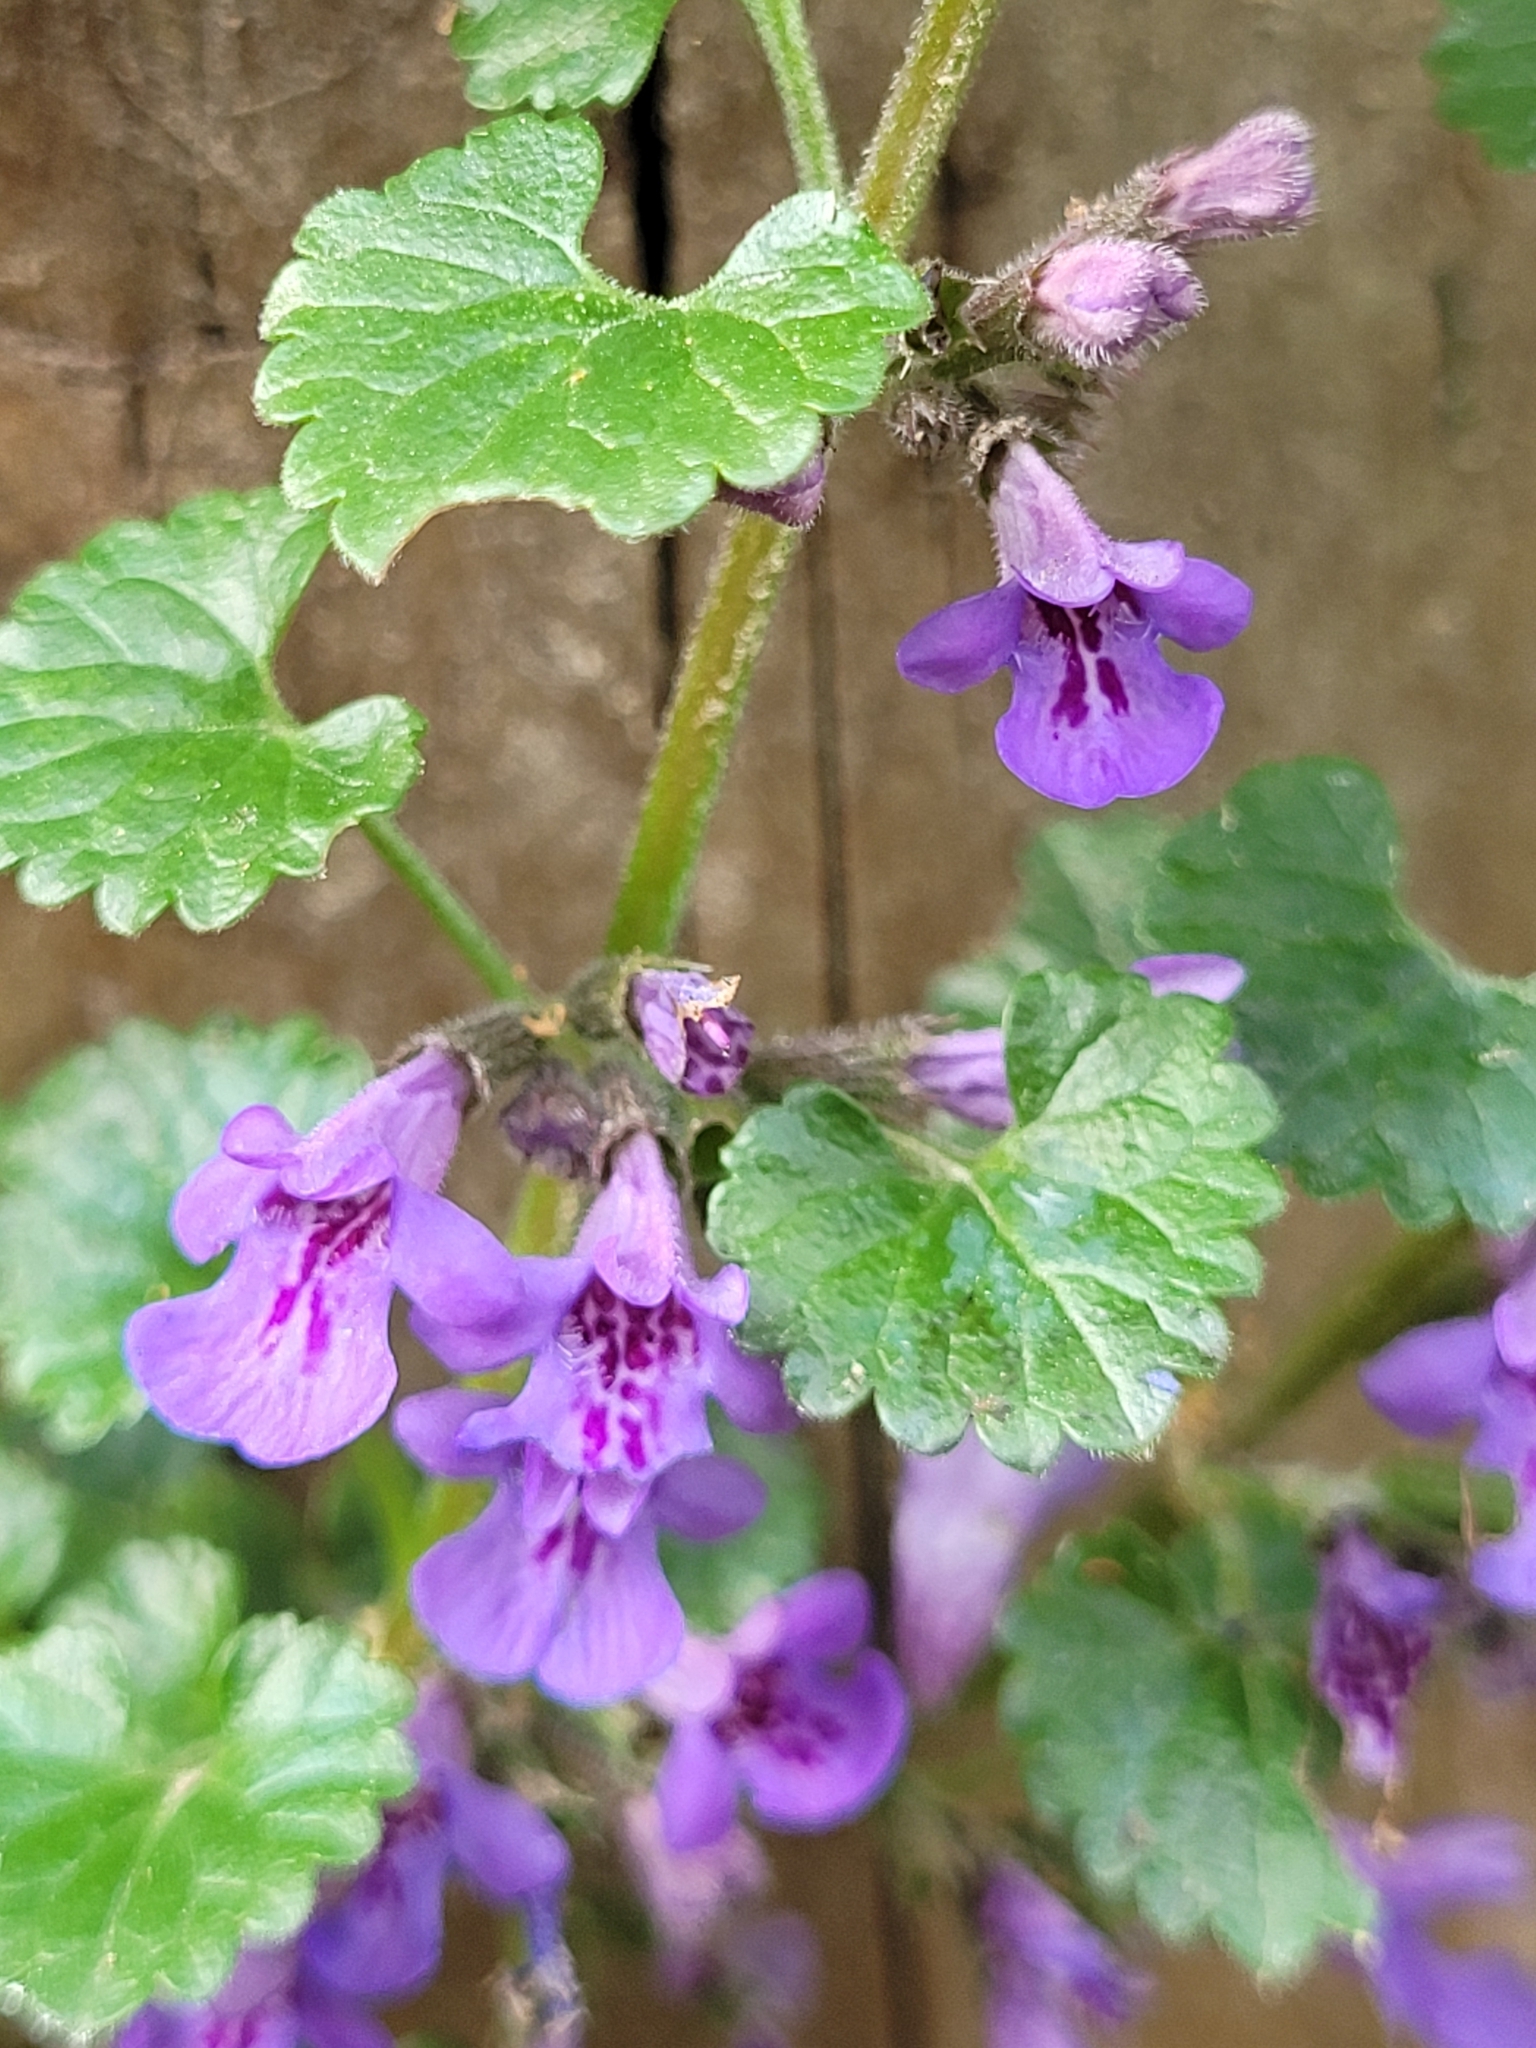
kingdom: Plantae
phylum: Tracheophyta
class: Magnoliopsida
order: Lamiales
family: Lamiaceae
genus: Glechoma
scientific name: Glechoma hederacea
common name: Ground ivy
